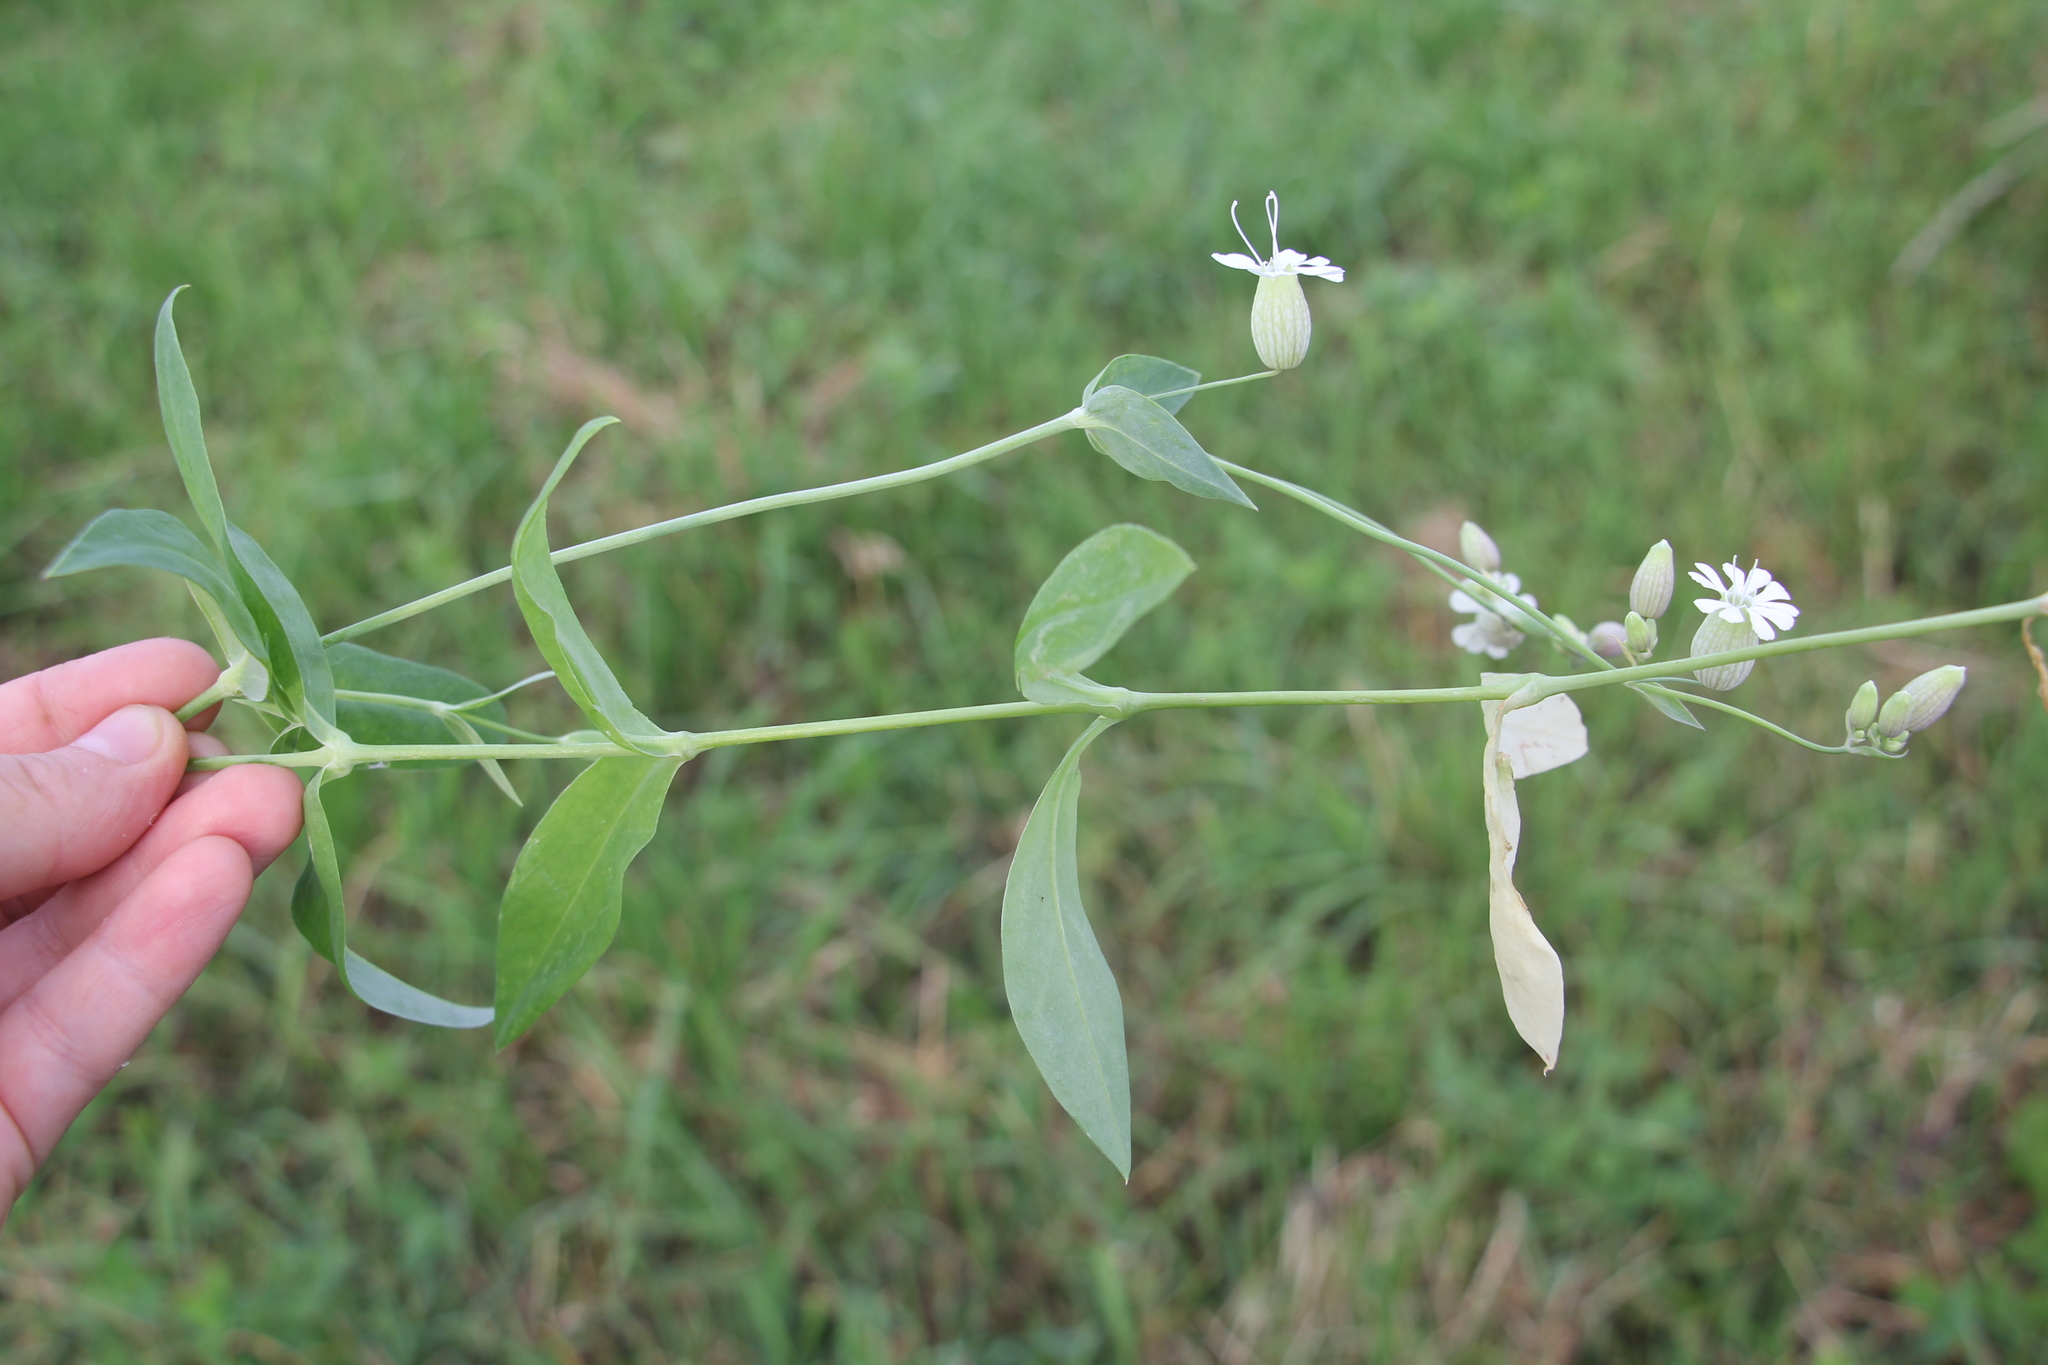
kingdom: Plantae
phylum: Tracheophyta
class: Magnoliopsida
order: Caryophyllales
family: Caryophyllaceae
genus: Silene
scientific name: Silene vulgaris
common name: Bladder campion
